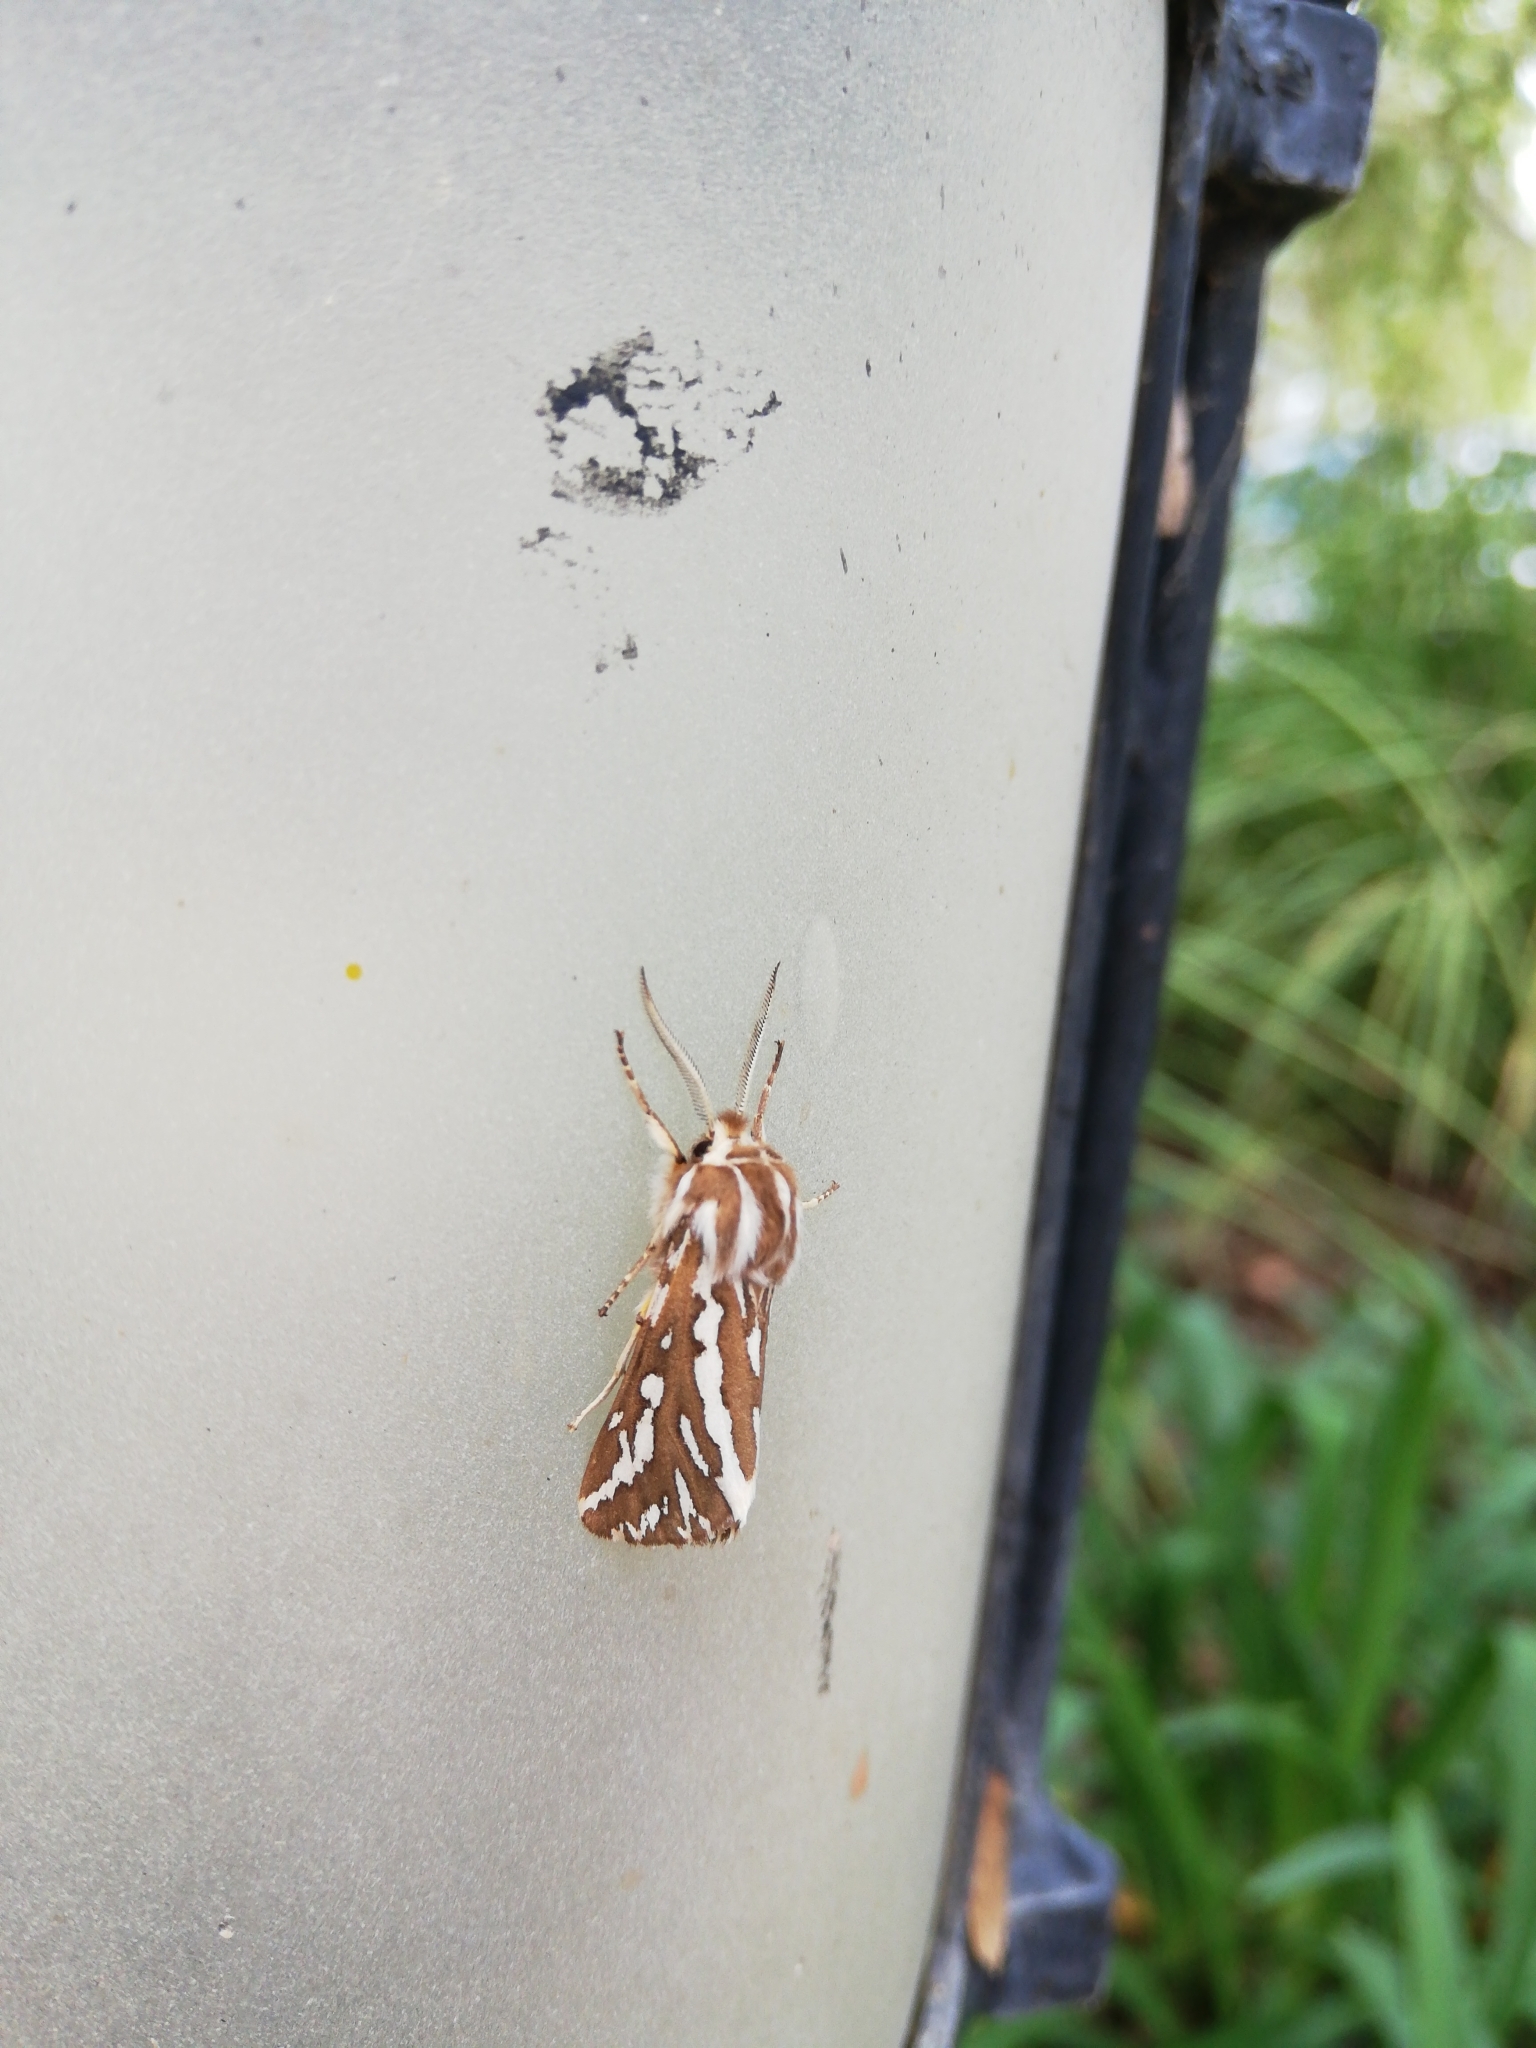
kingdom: Animalia
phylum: Arthropoda
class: Insecta
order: Lepidoptera
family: Erebidae
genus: Paralacydes
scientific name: Paralacydes vocula
